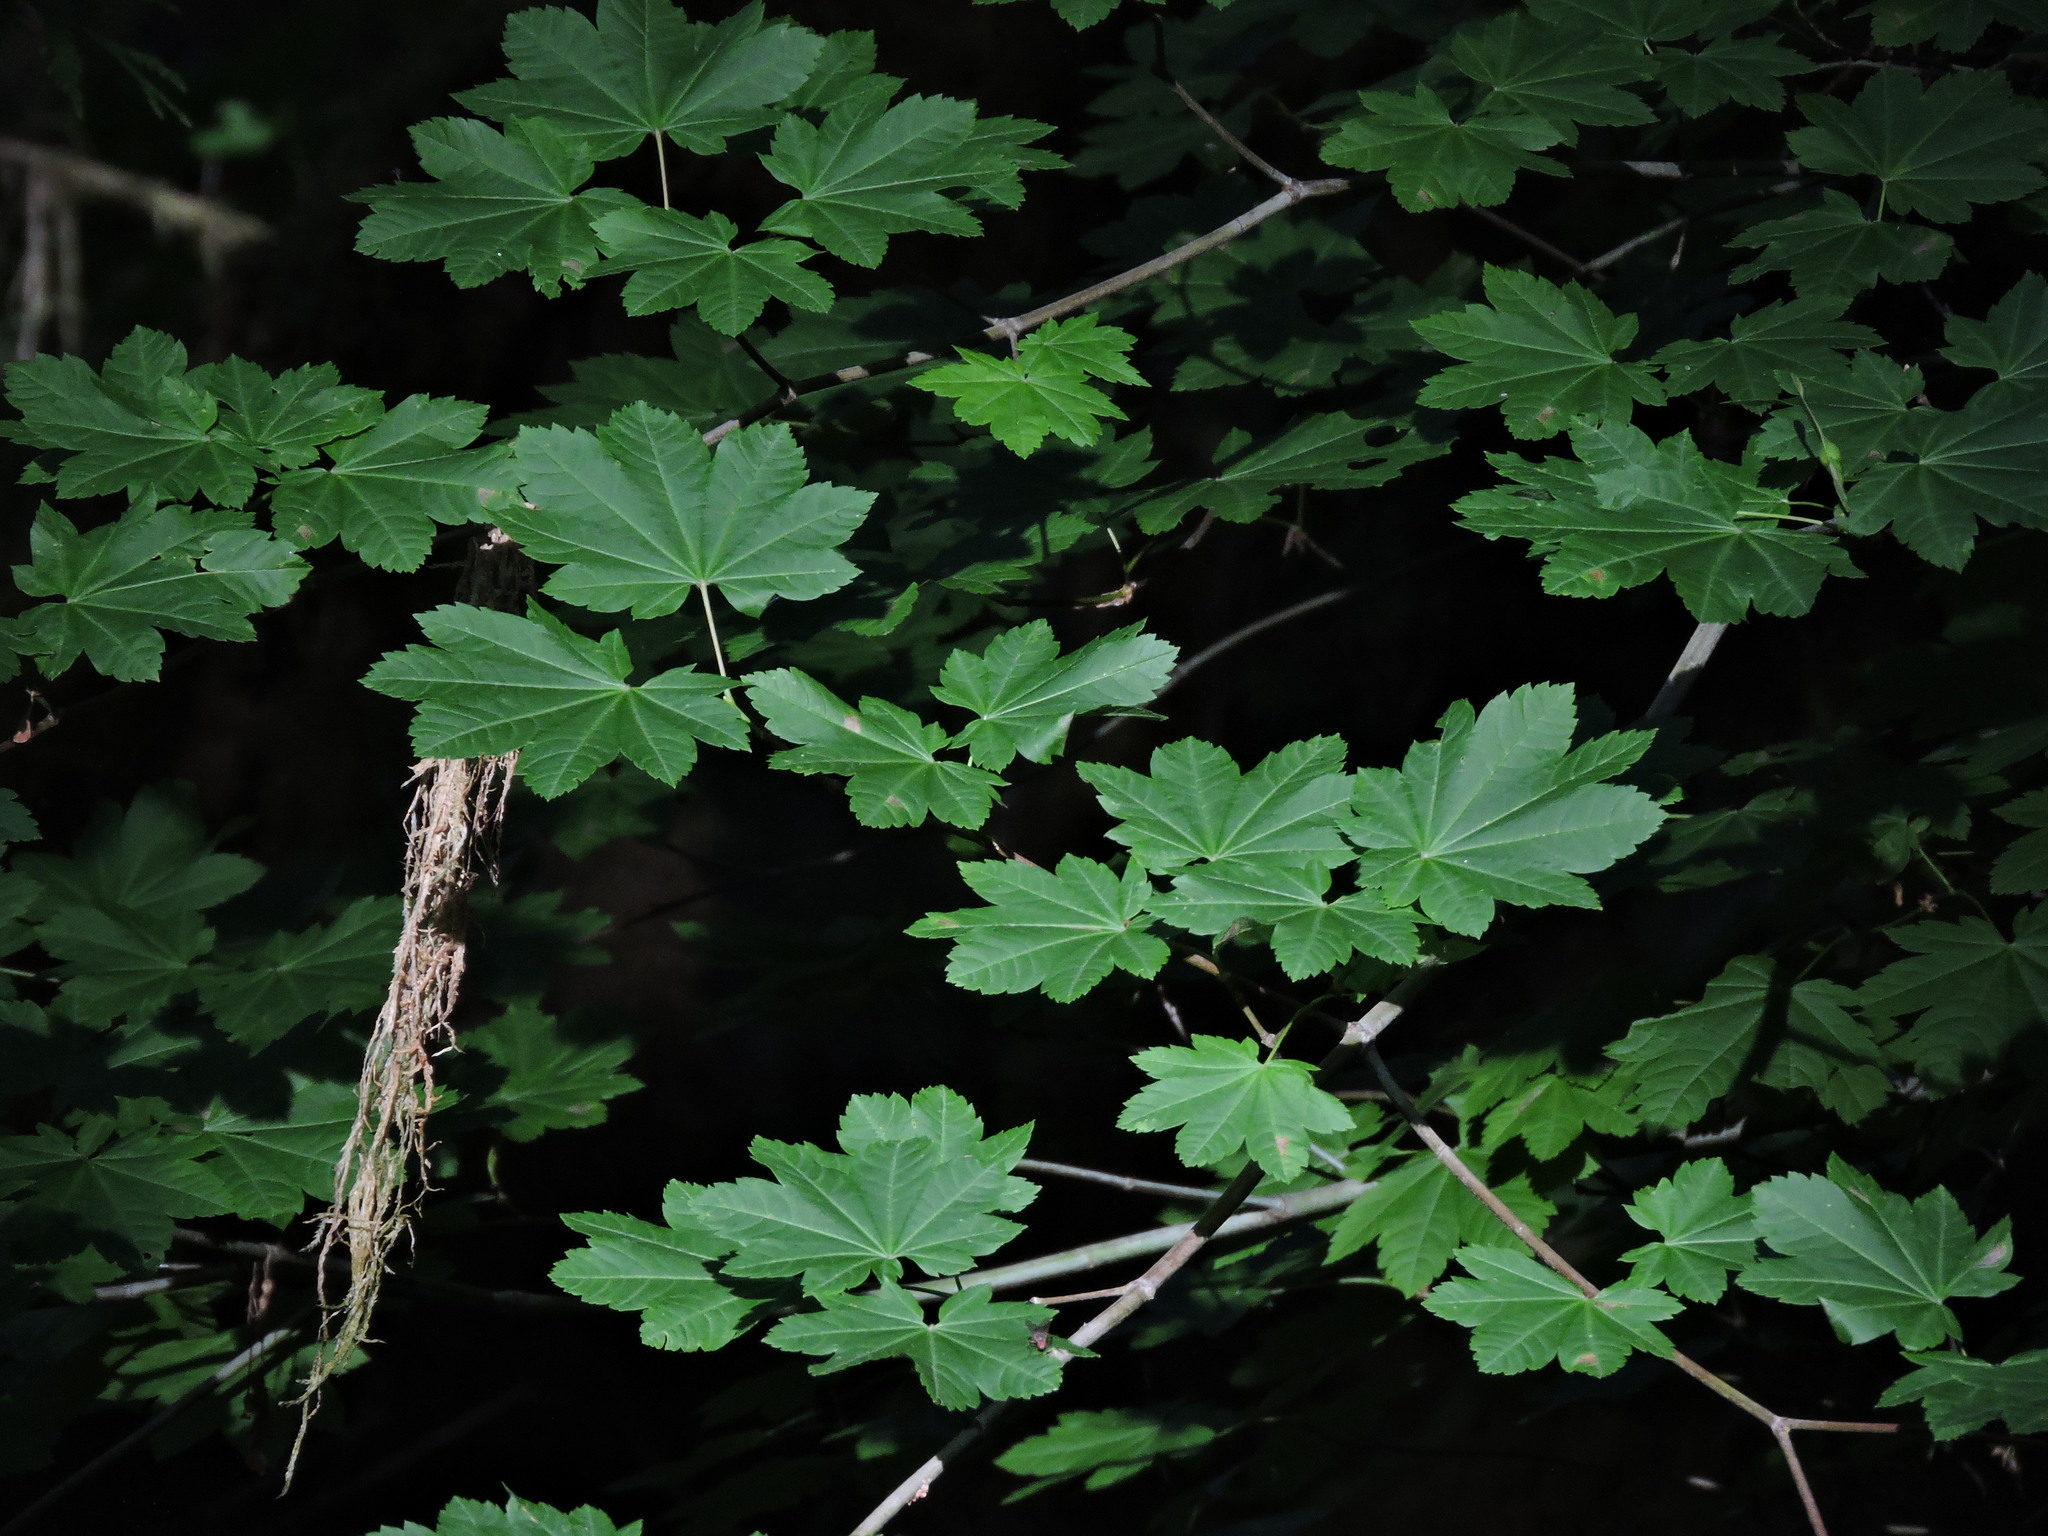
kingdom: Plantae
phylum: Tracheophyta
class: Magnoliopsida
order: Sapindales
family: Sapindaceae
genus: Acer
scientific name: Acer circinatum
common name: Vine maple
